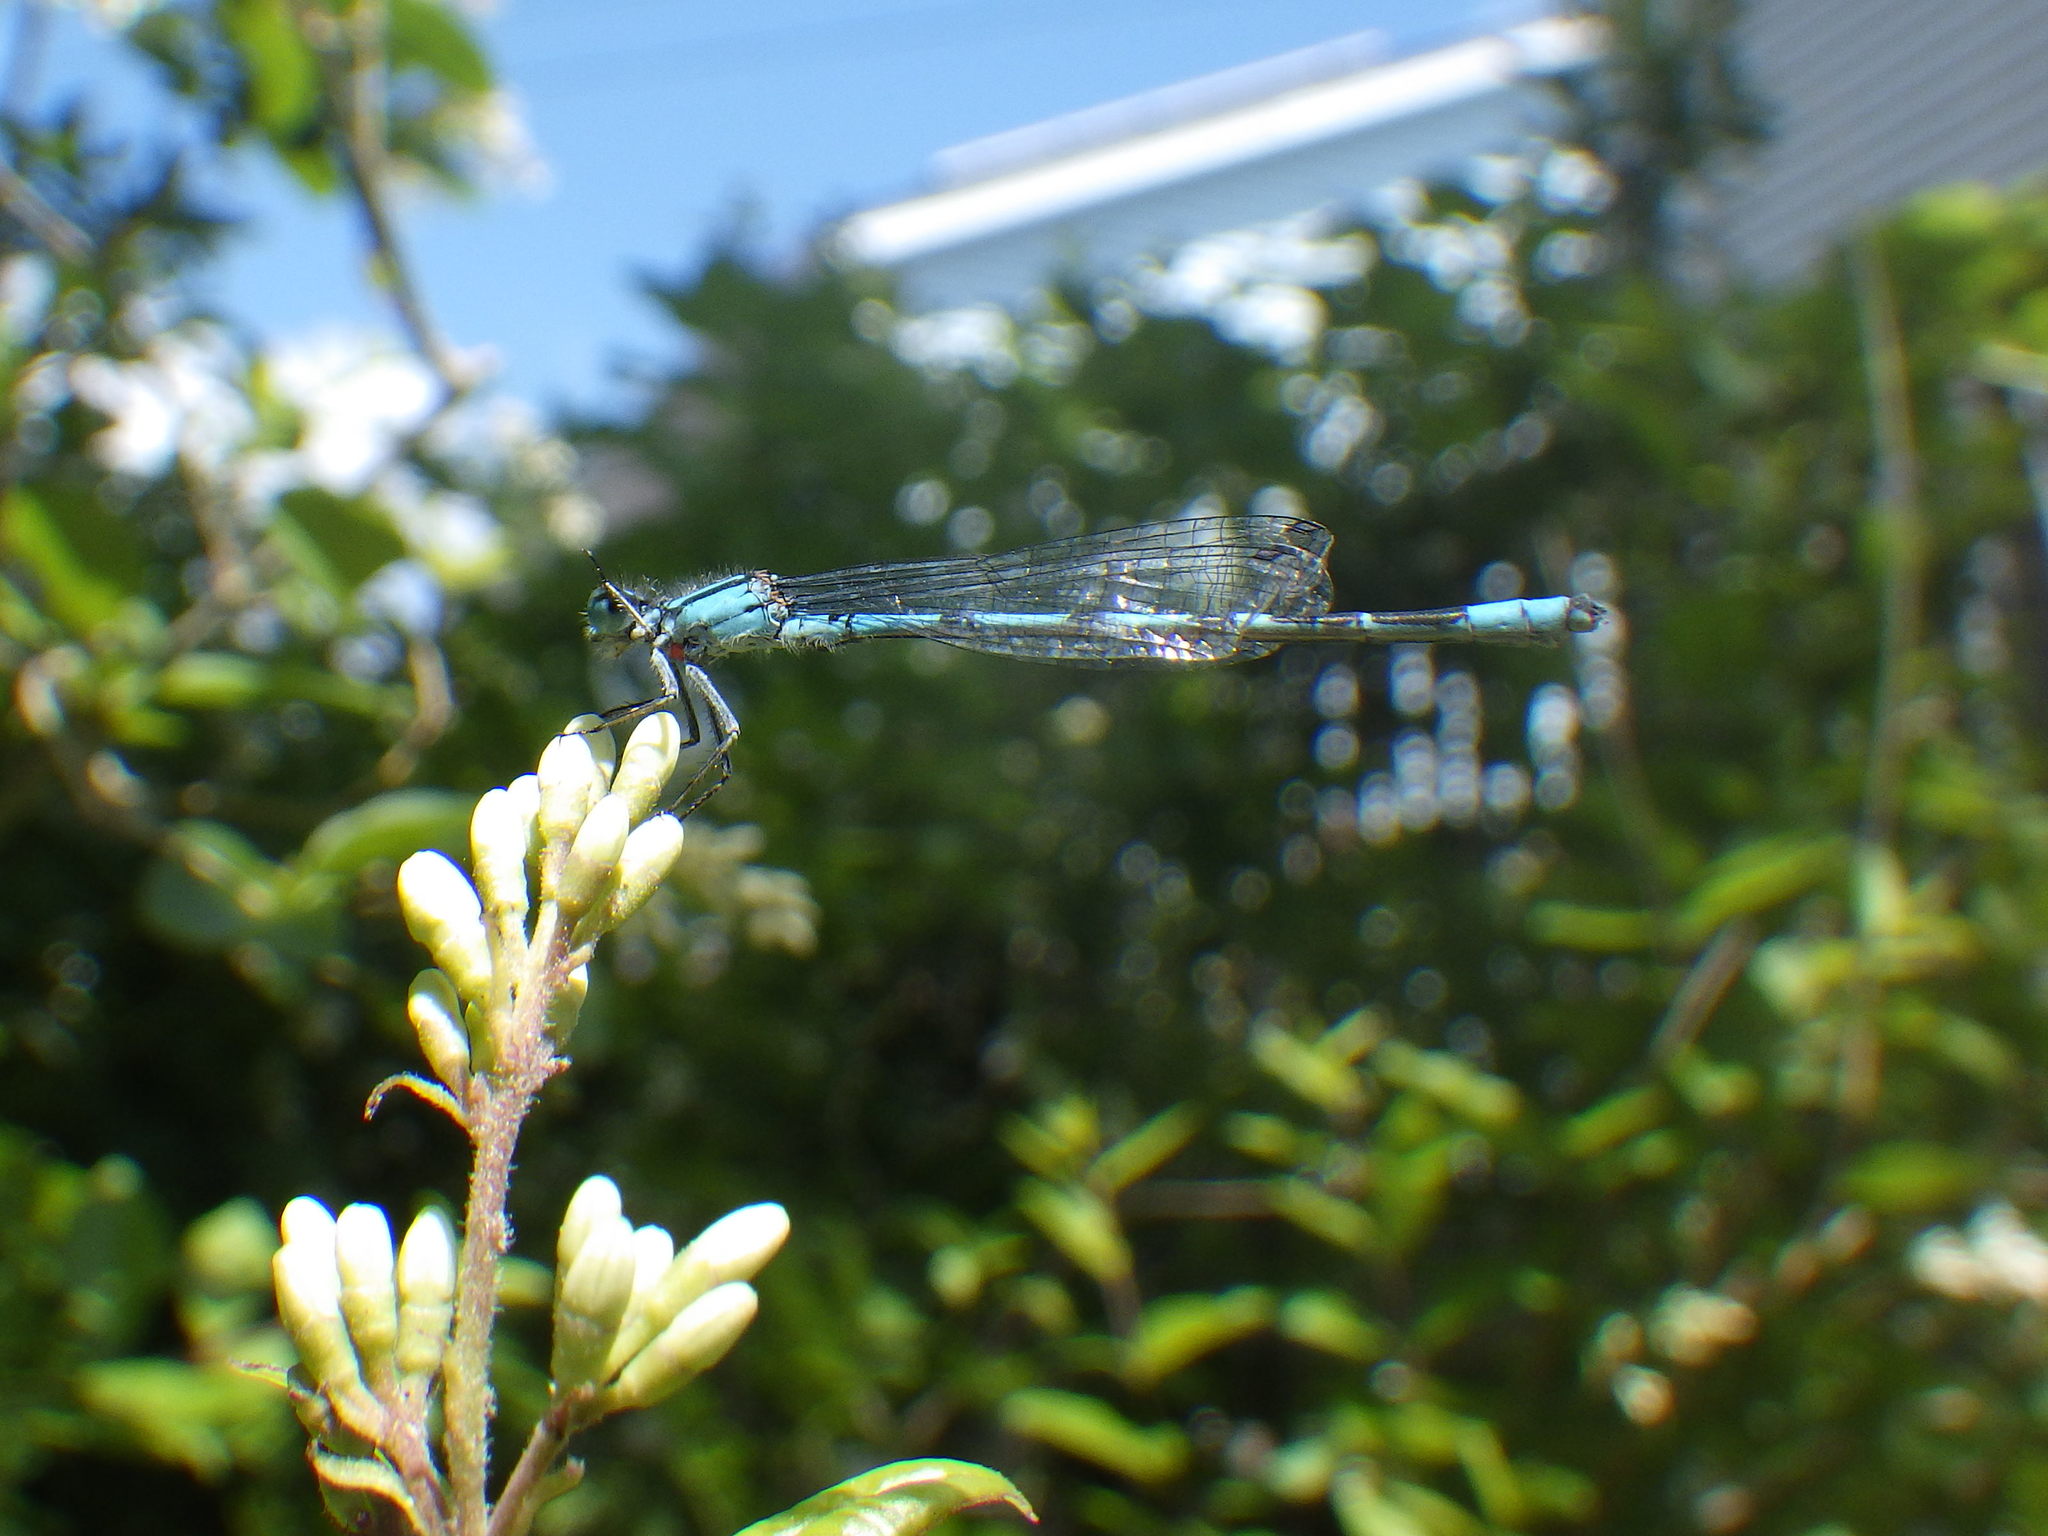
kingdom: Animalia
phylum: Arthropoda
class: Insecta
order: Odonata
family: Coenagrionidae
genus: Enallagma
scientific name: Enallagma hageni
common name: Hagen's bluet
